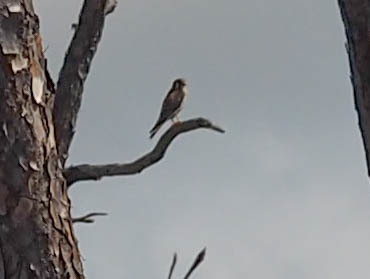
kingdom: Animalia
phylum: Chordata
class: Aves
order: Falconiformes
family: Falconidae
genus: Falco
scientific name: Falco sparverius
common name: American kestrel
